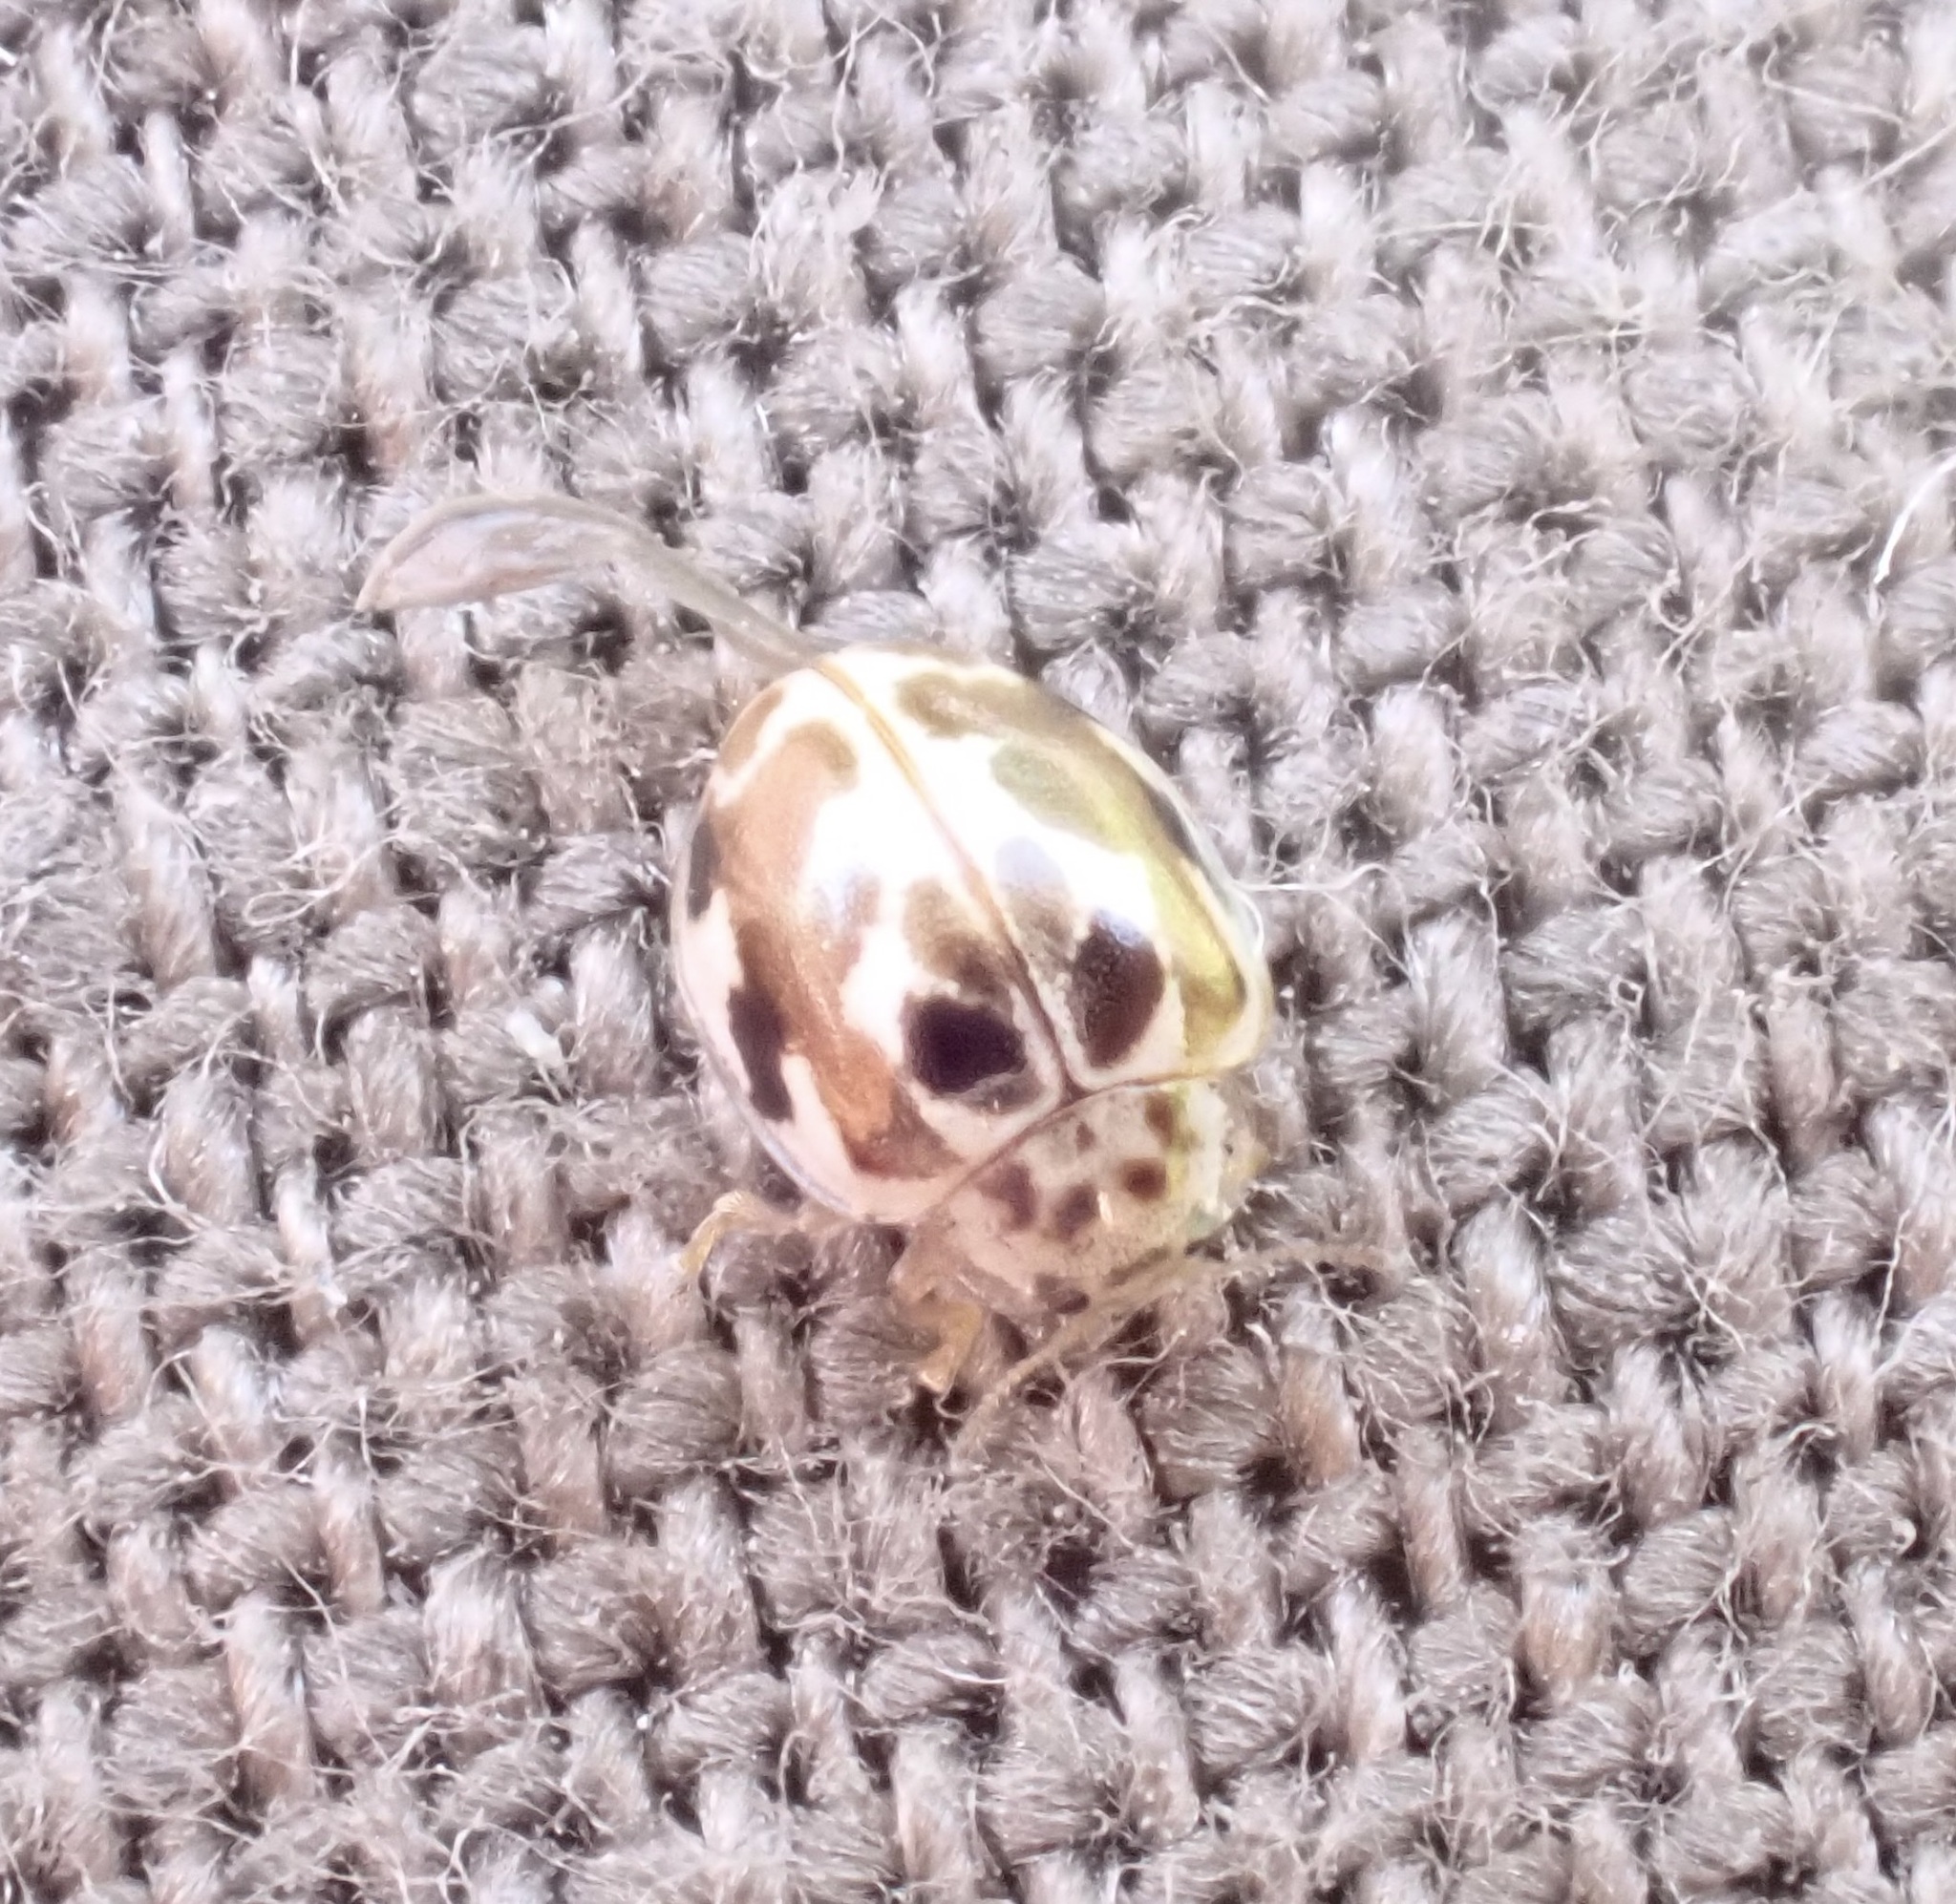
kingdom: Animalia
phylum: Arthropoda
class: Insecta
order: Coleoptera
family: Coccinellidae
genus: Psyllobora
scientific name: Psyllobora vigintimaculata
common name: Ladybird beetle
